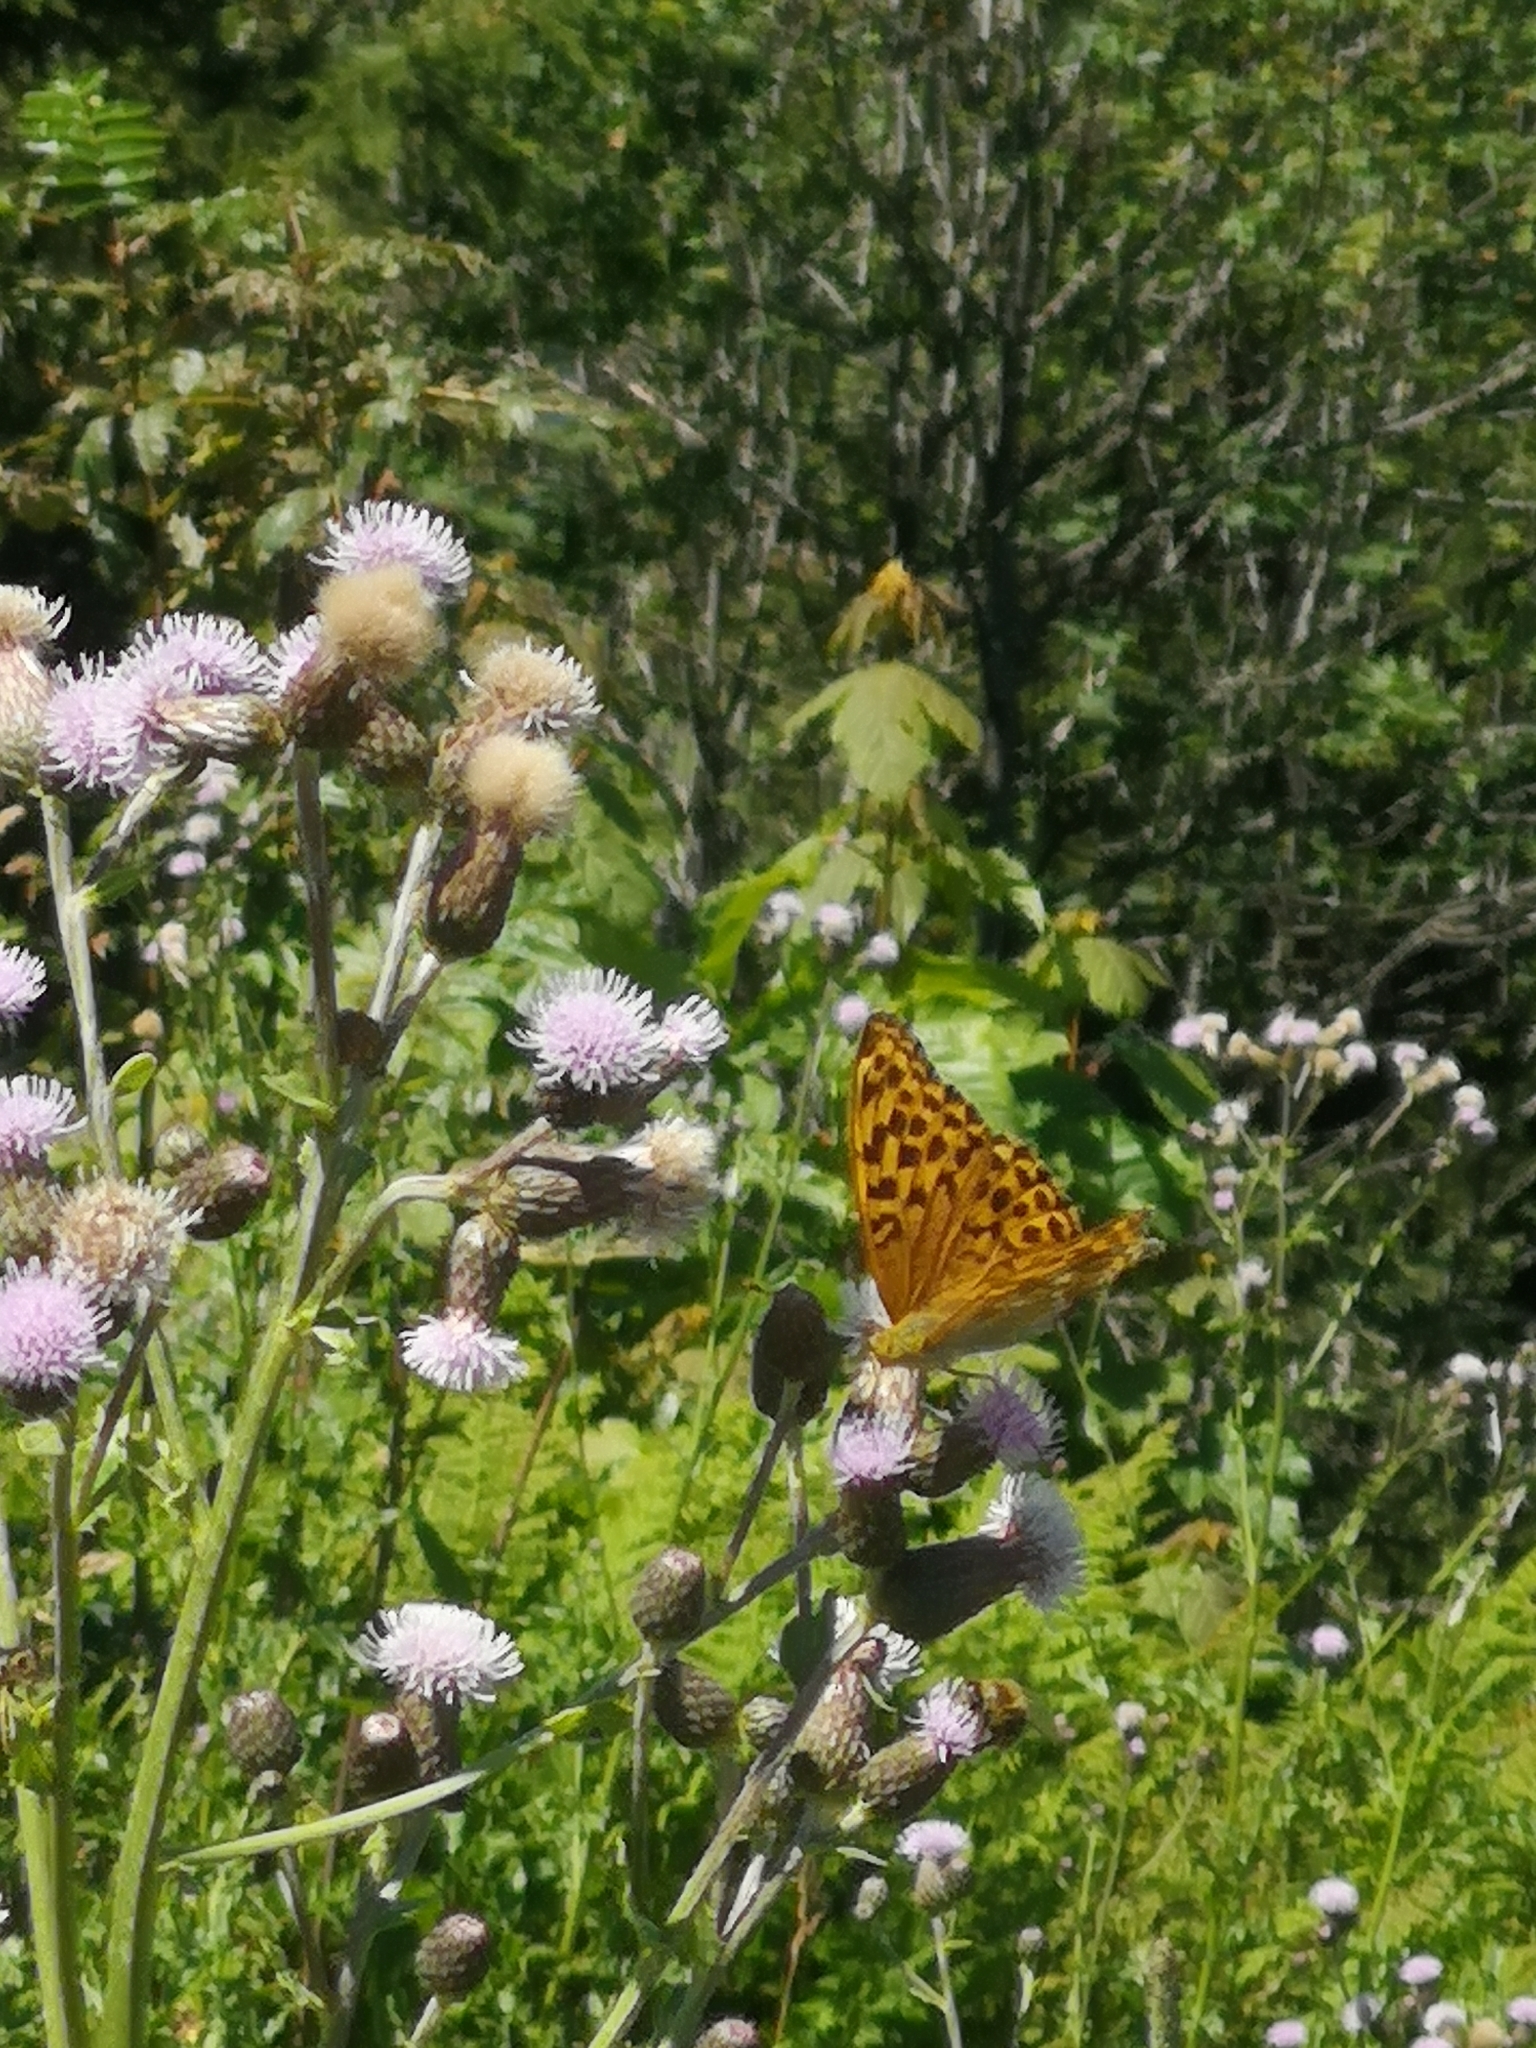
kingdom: Animalia
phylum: Arthropoda
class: Insecta
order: Lepidoptera
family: Nymphalidae
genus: Argynnis
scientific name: Argynnis paphia
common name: Silver-washed fritillary
